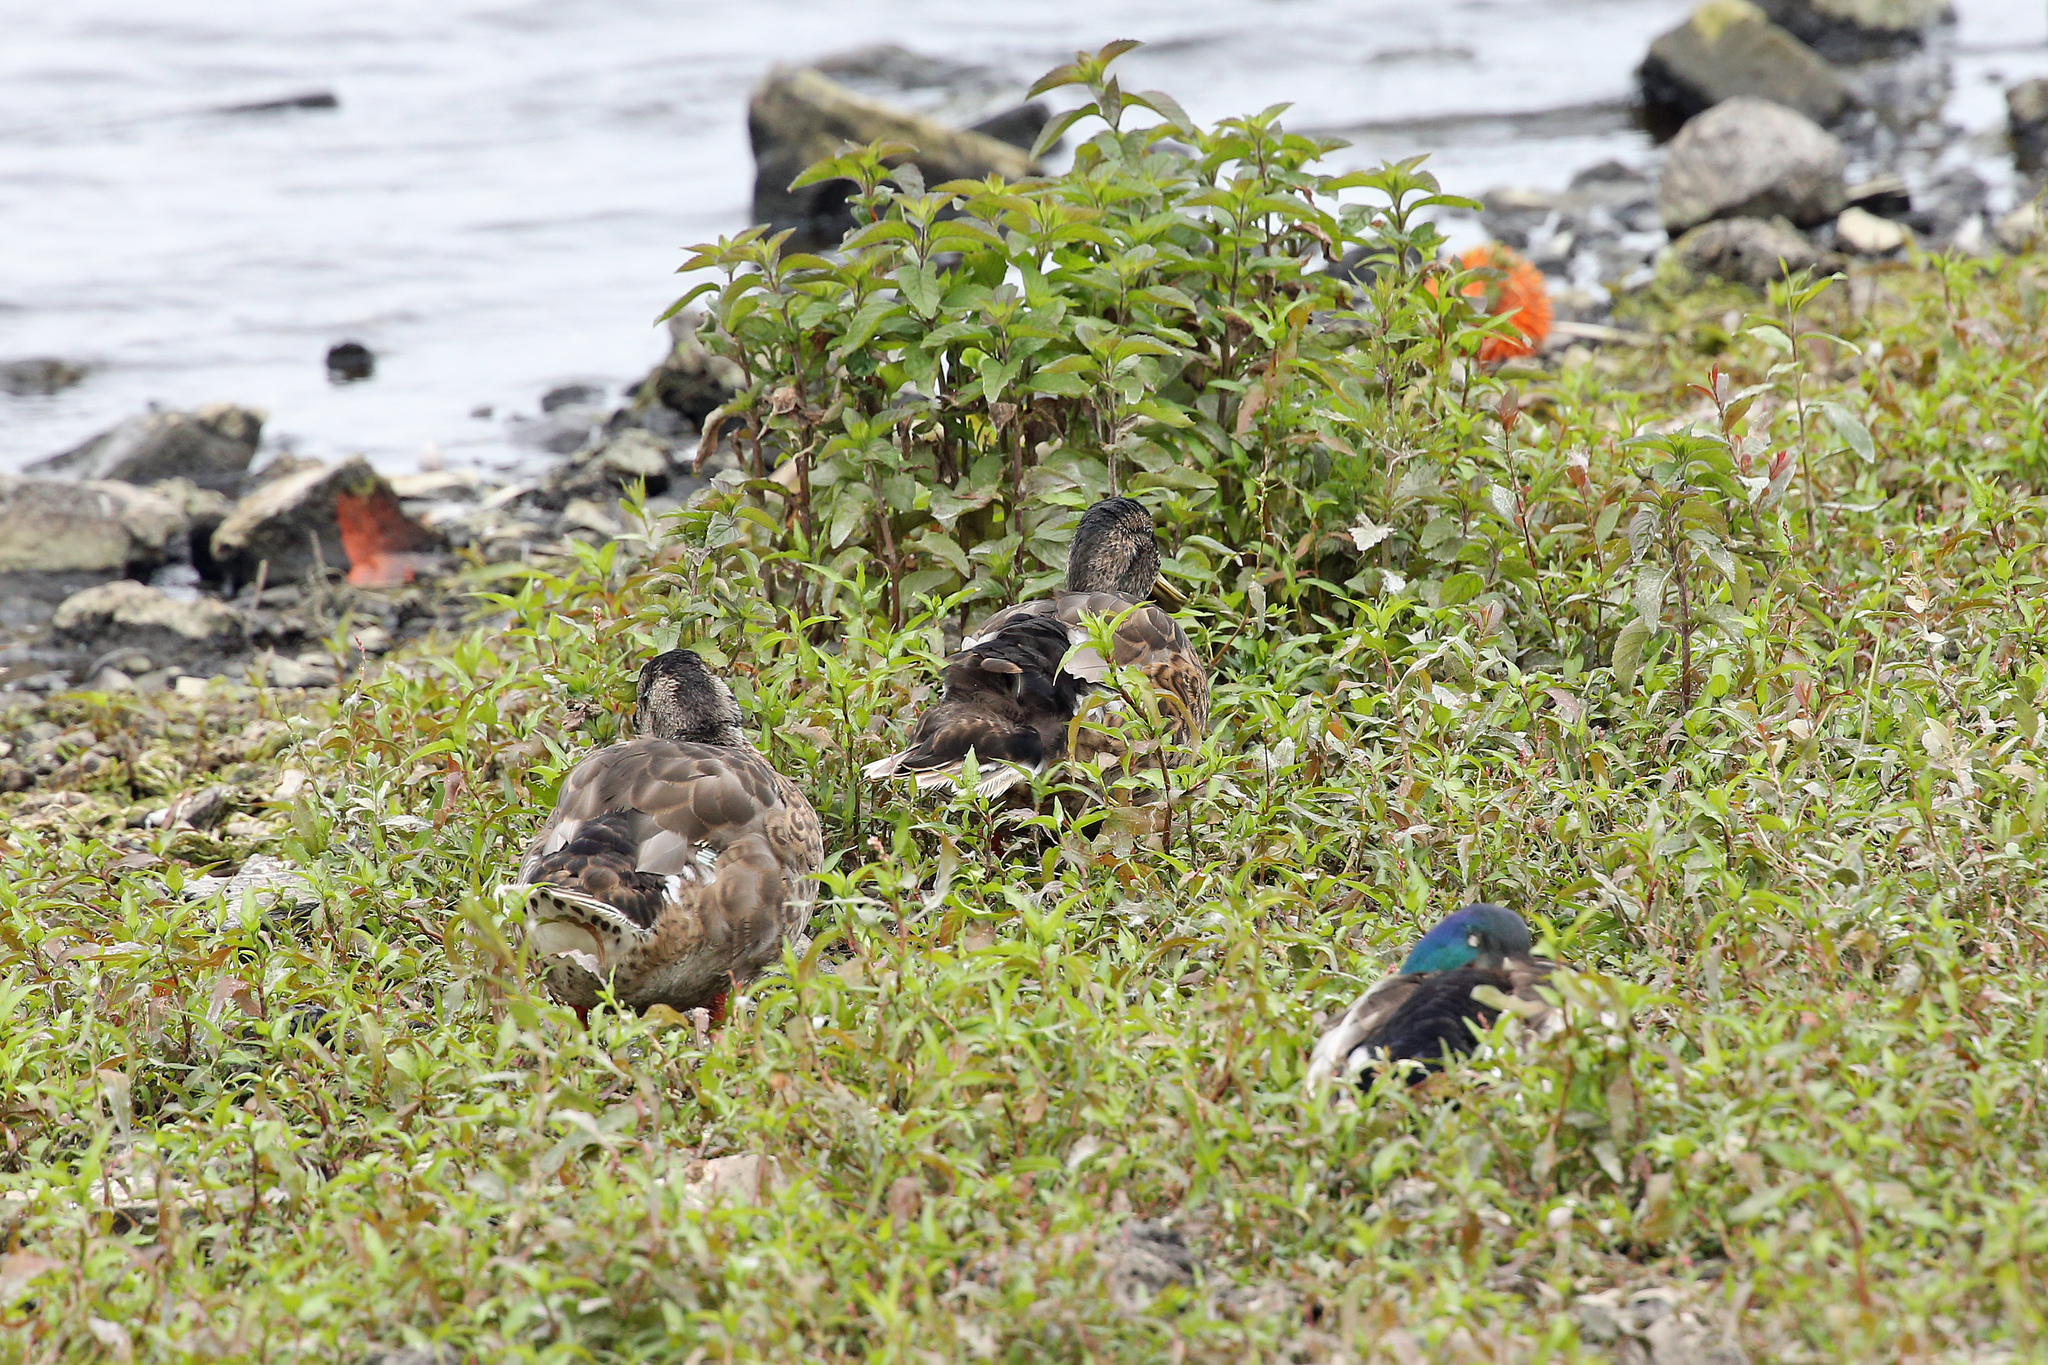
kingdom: Animalia
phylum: Chordata
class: Aves
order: Anseriformes
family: Anatidae
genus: Anas
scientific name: Anas platyrhynchos
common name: Mallard
